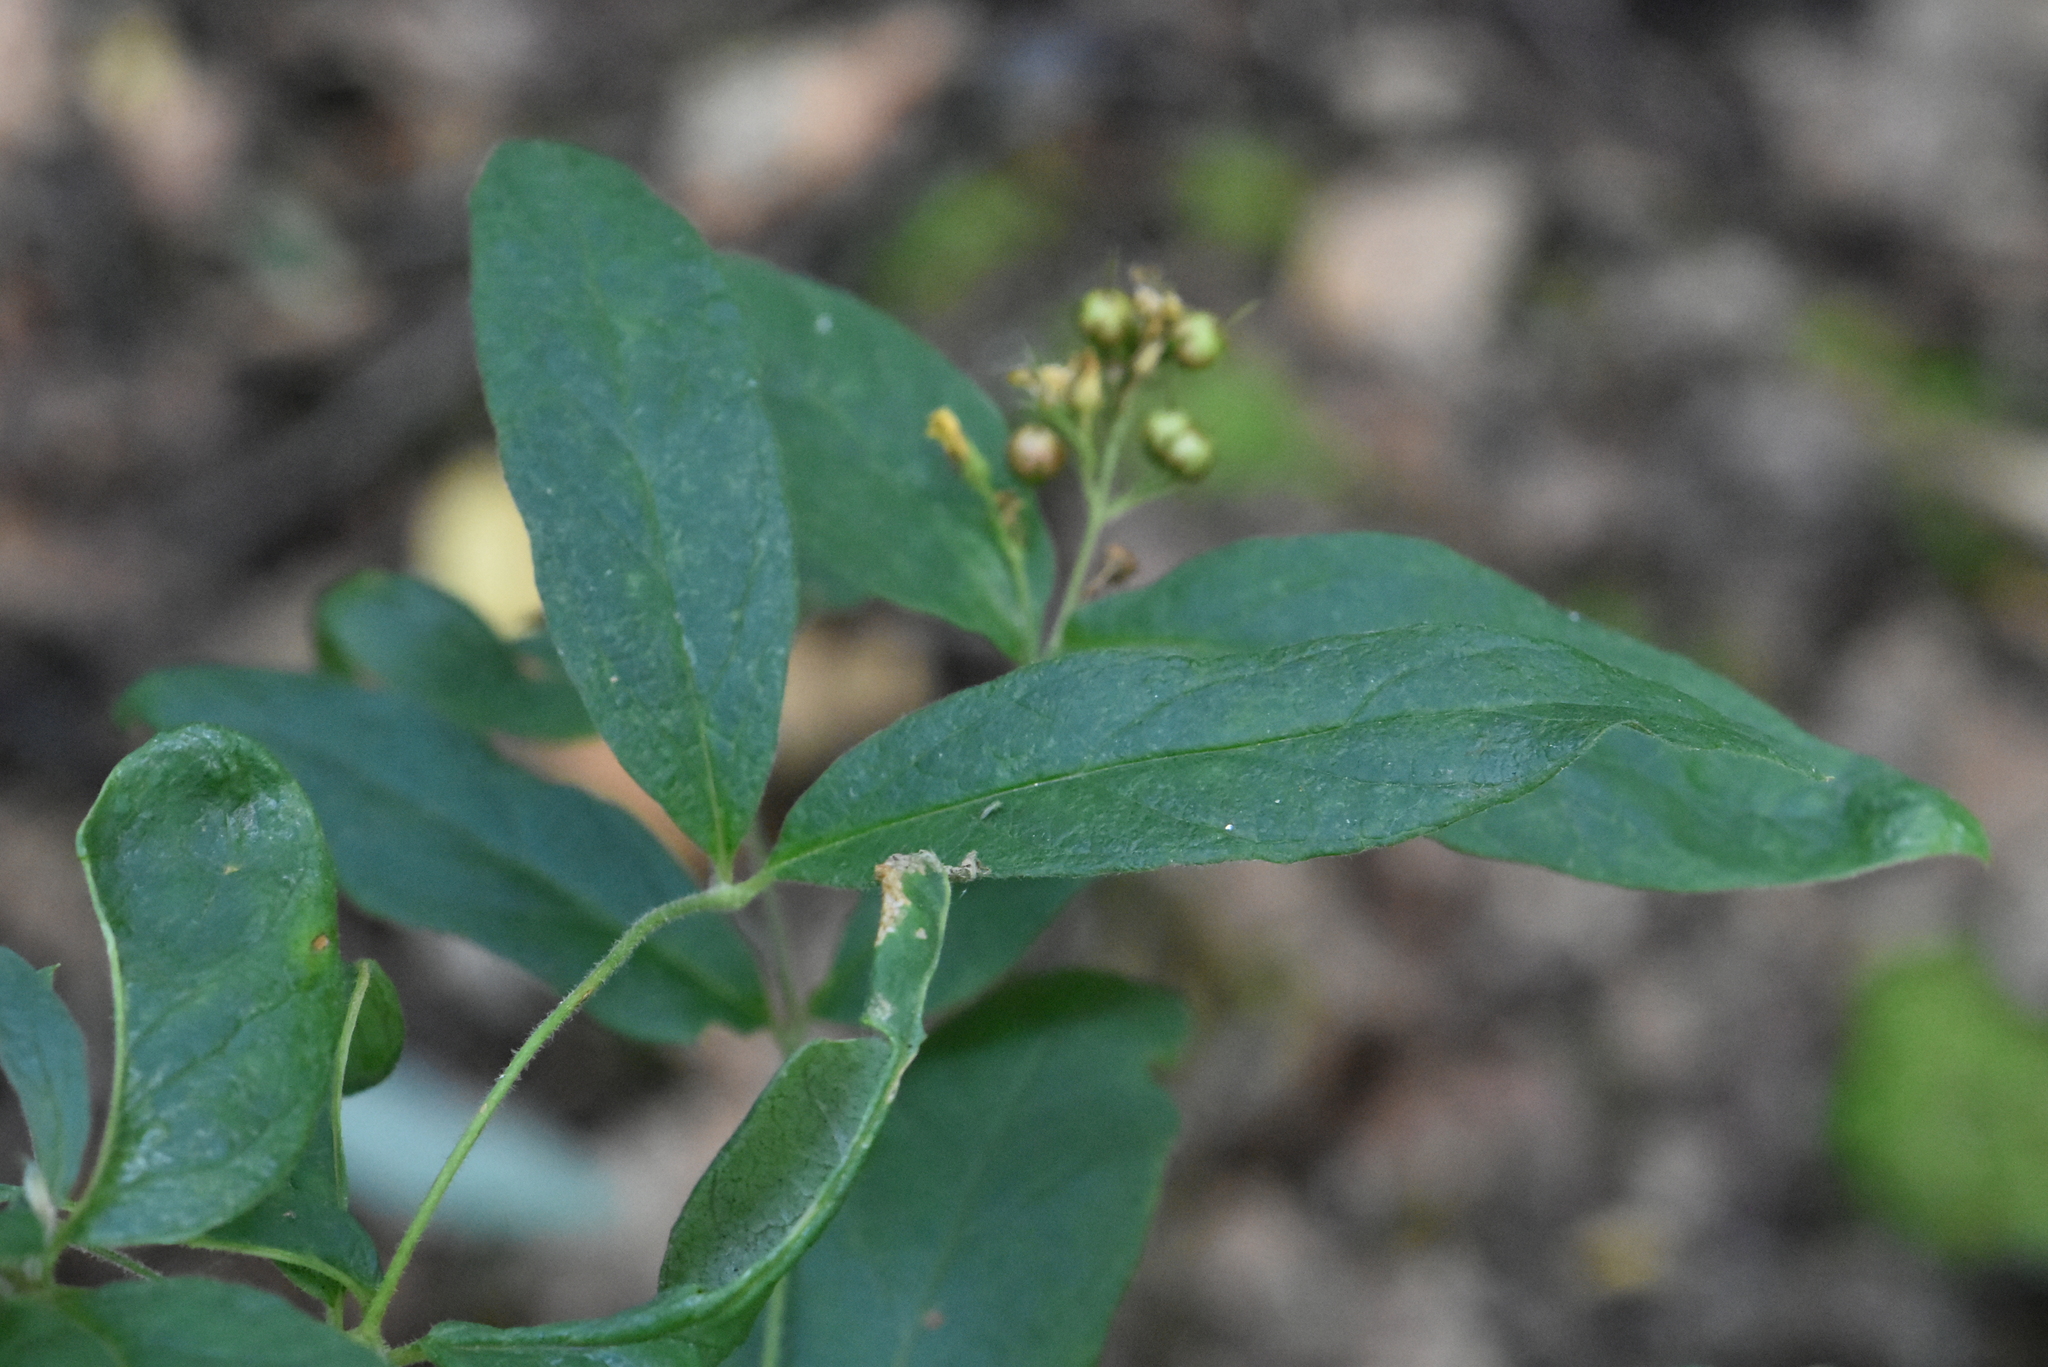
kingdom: Plantae
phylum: Tracheophyta
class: Magnoliopsida
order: Ericales
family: Primulaceae
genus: Lysimachia
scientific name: Lysimachia vulgaris
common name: Yellow loosestrife
